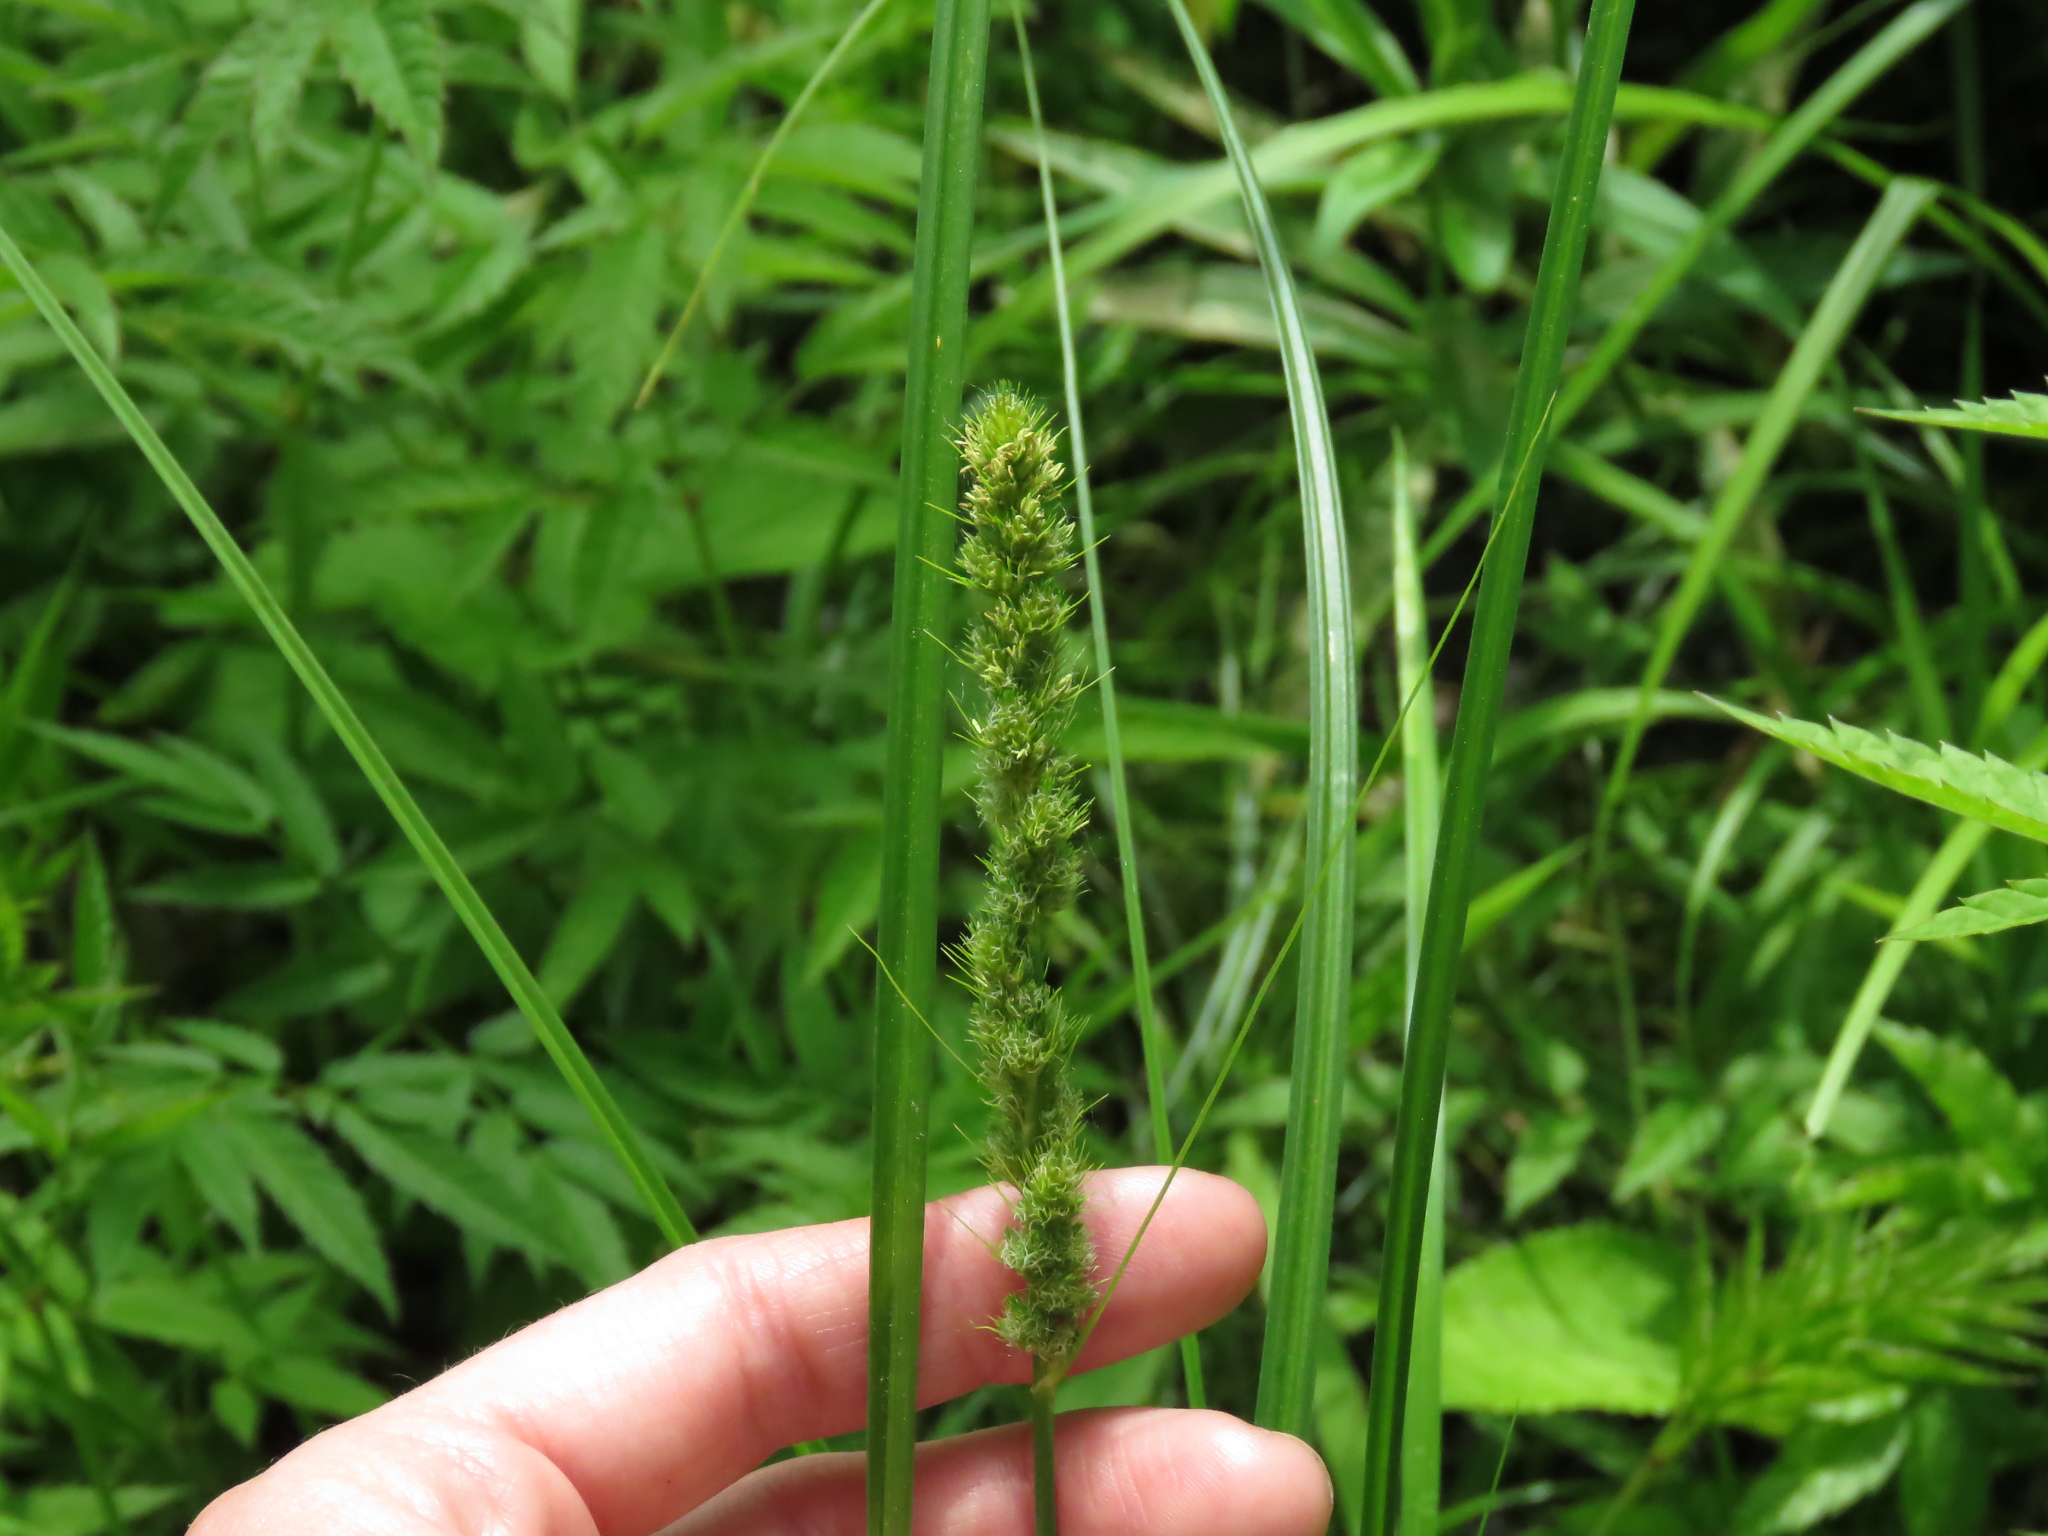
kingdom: Plantae
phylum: Tracheophyta
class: Liliopsida
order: Poales
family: Cyperaceae
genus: Carex
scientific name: Carex vulpinoidea
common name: American fox-sedge
